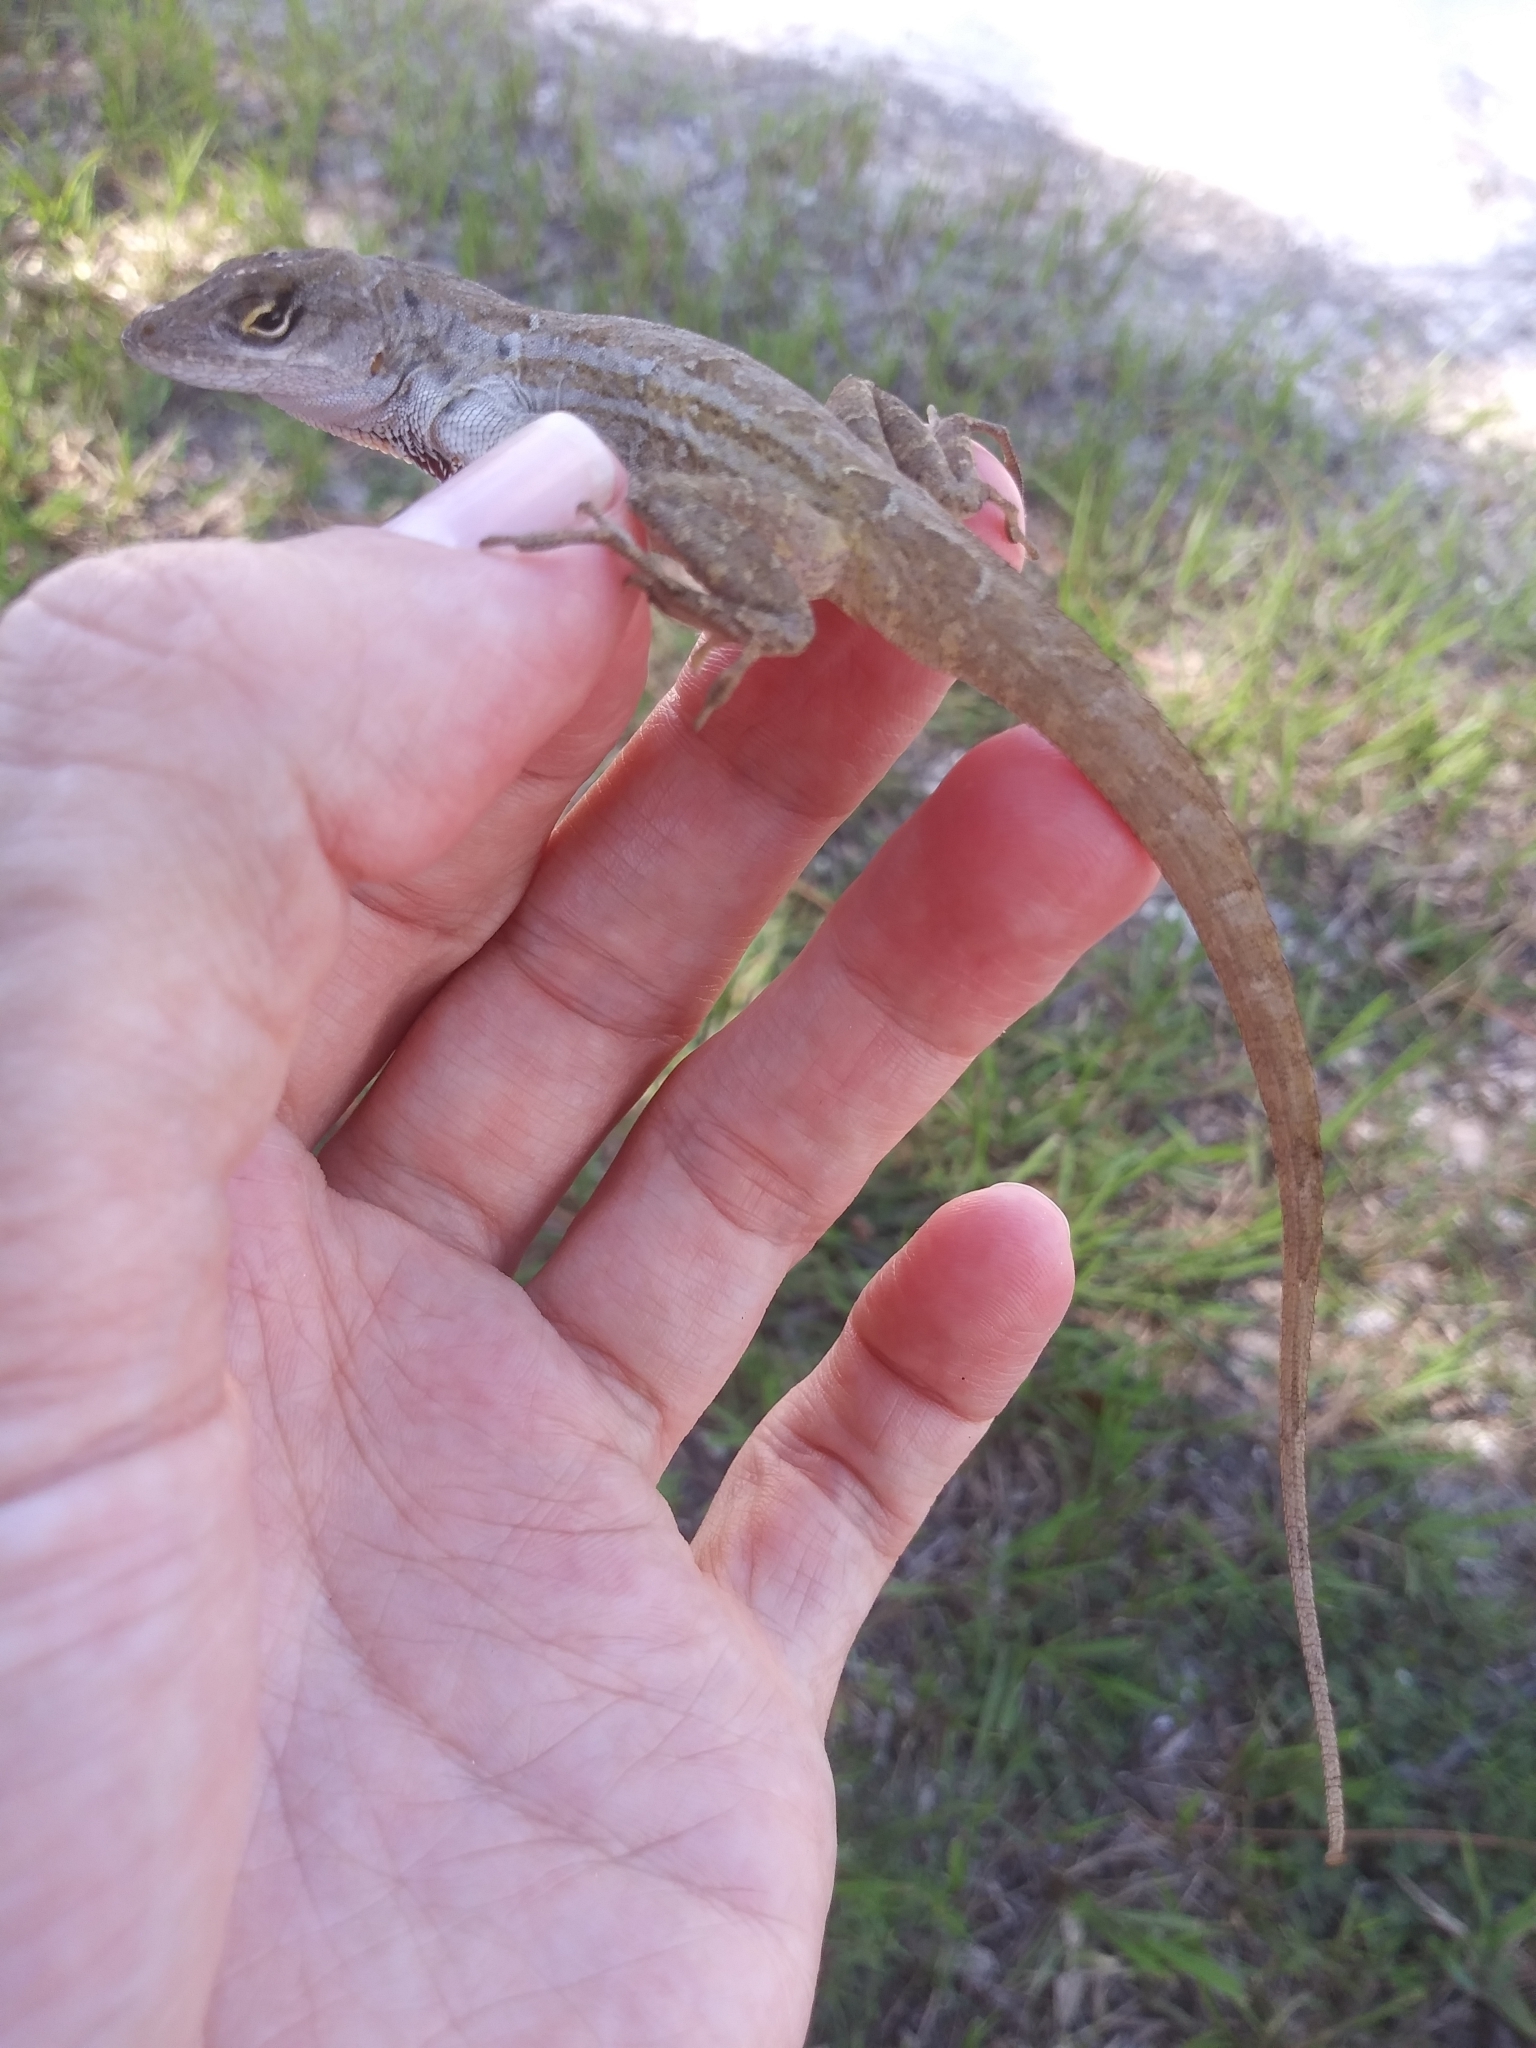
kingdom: Animalia
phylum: Chordata
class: Squamata
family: Dactyloidae
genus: Anolis
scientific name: Anolis sagrei
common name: Brown anole
